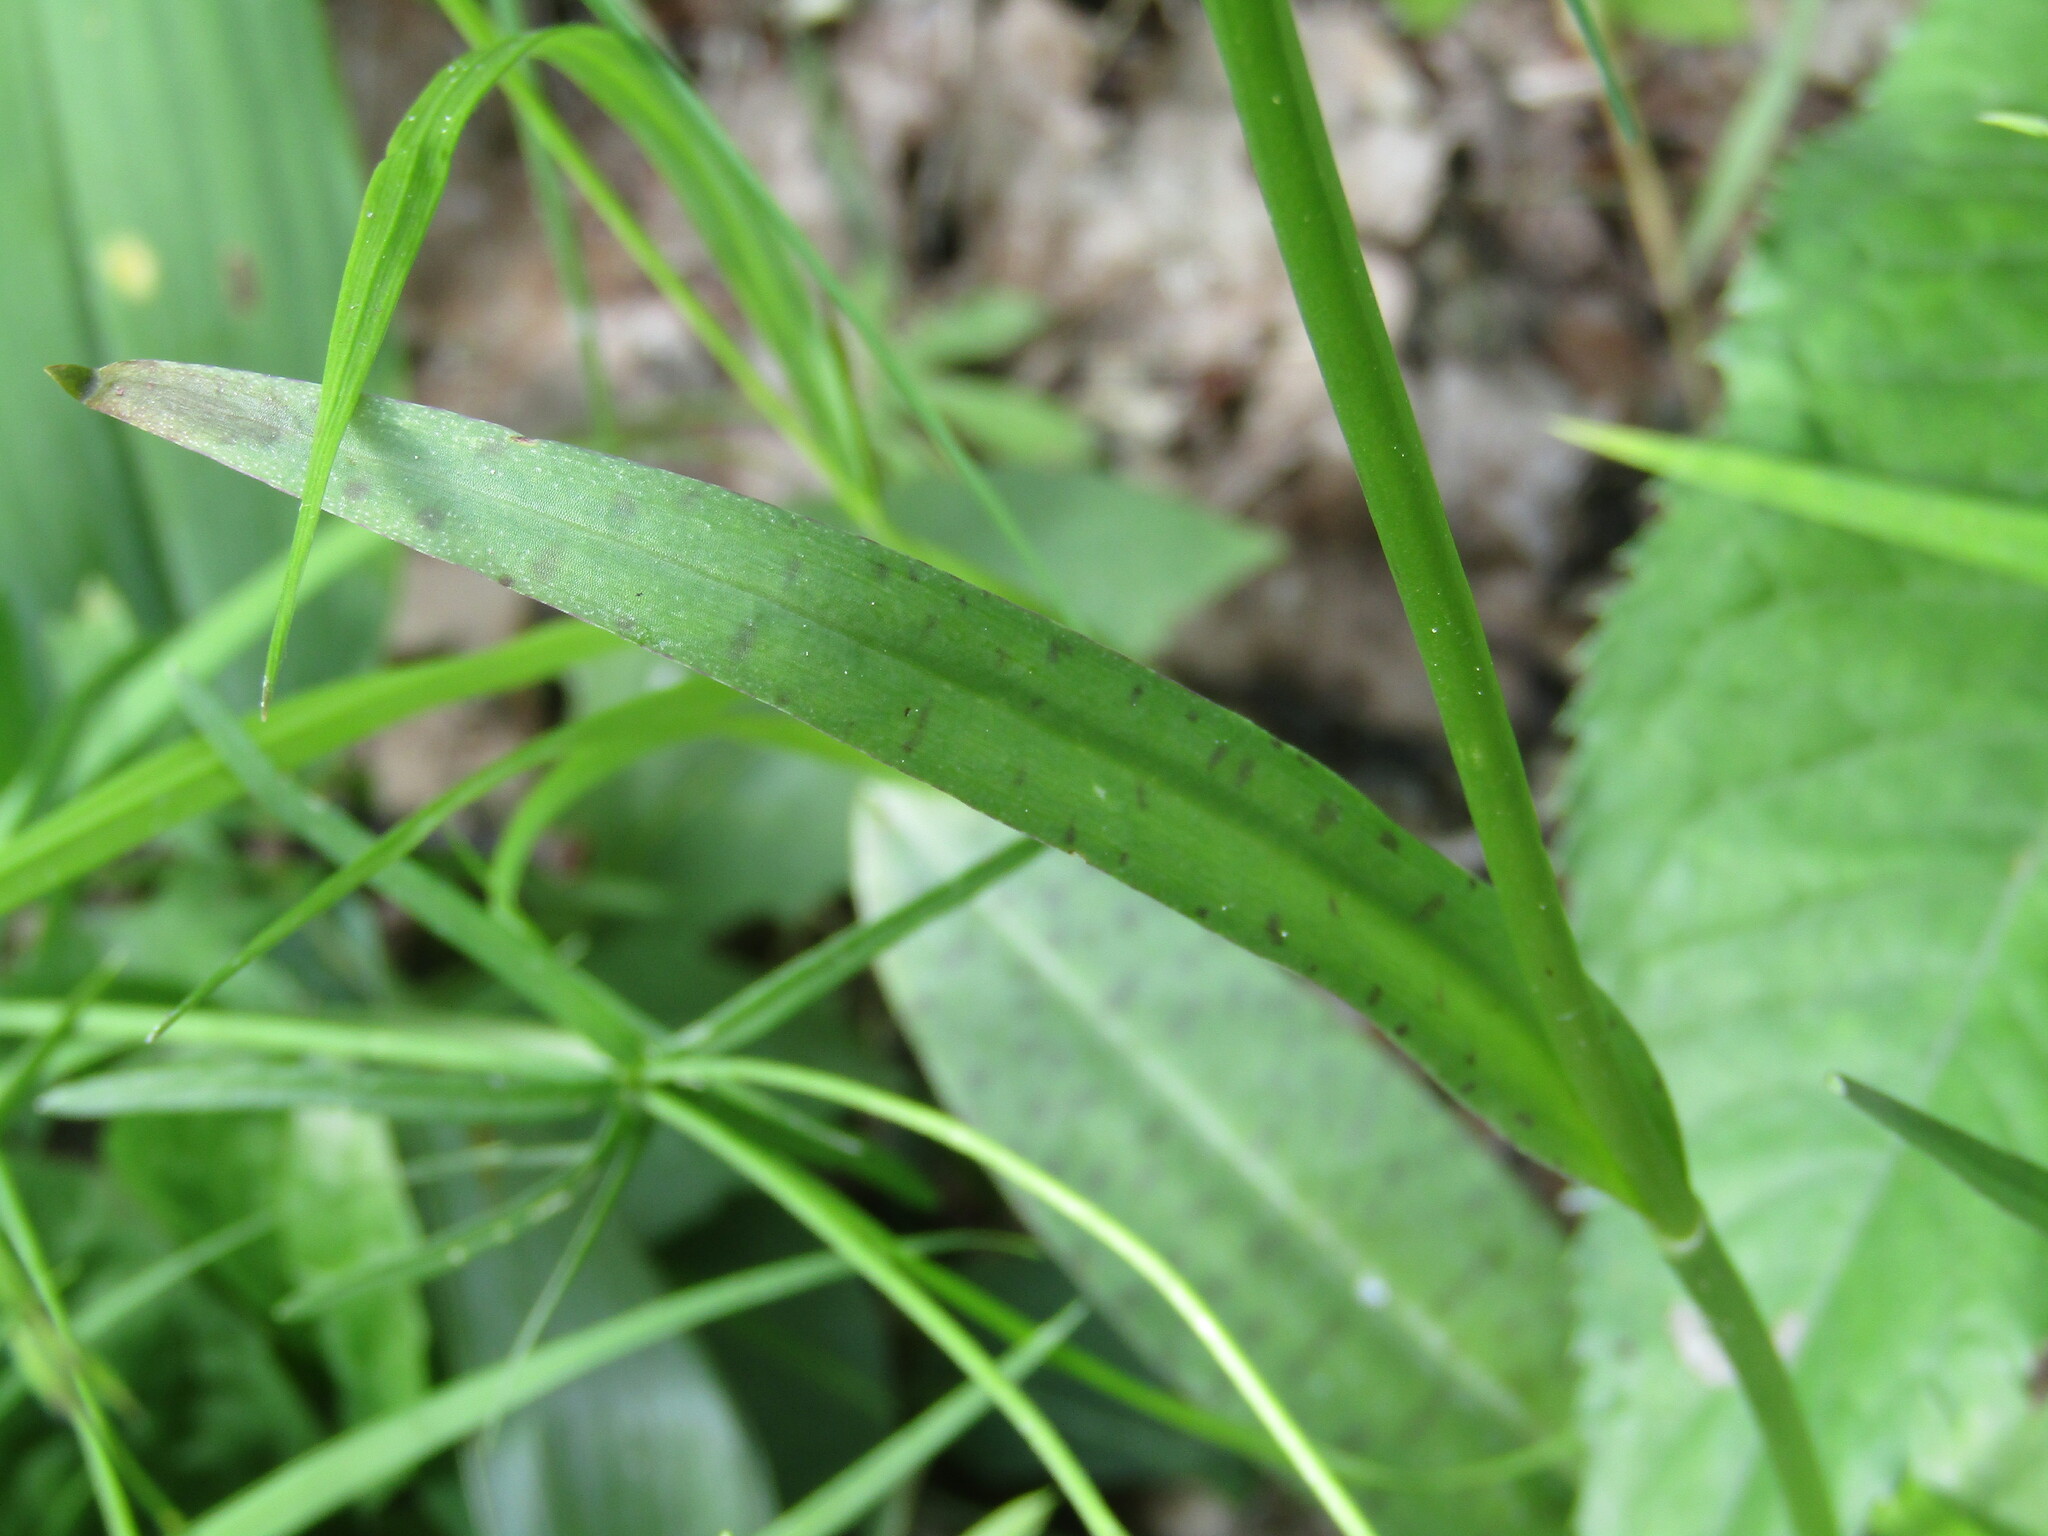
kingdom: Plantae
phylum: Tracheophyta
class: Liliopsida
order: Asparagales
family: Orchidaceae
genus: Dactylorhiza
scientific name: Dactylorhiza maculata
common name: Heath spotted-orchid
